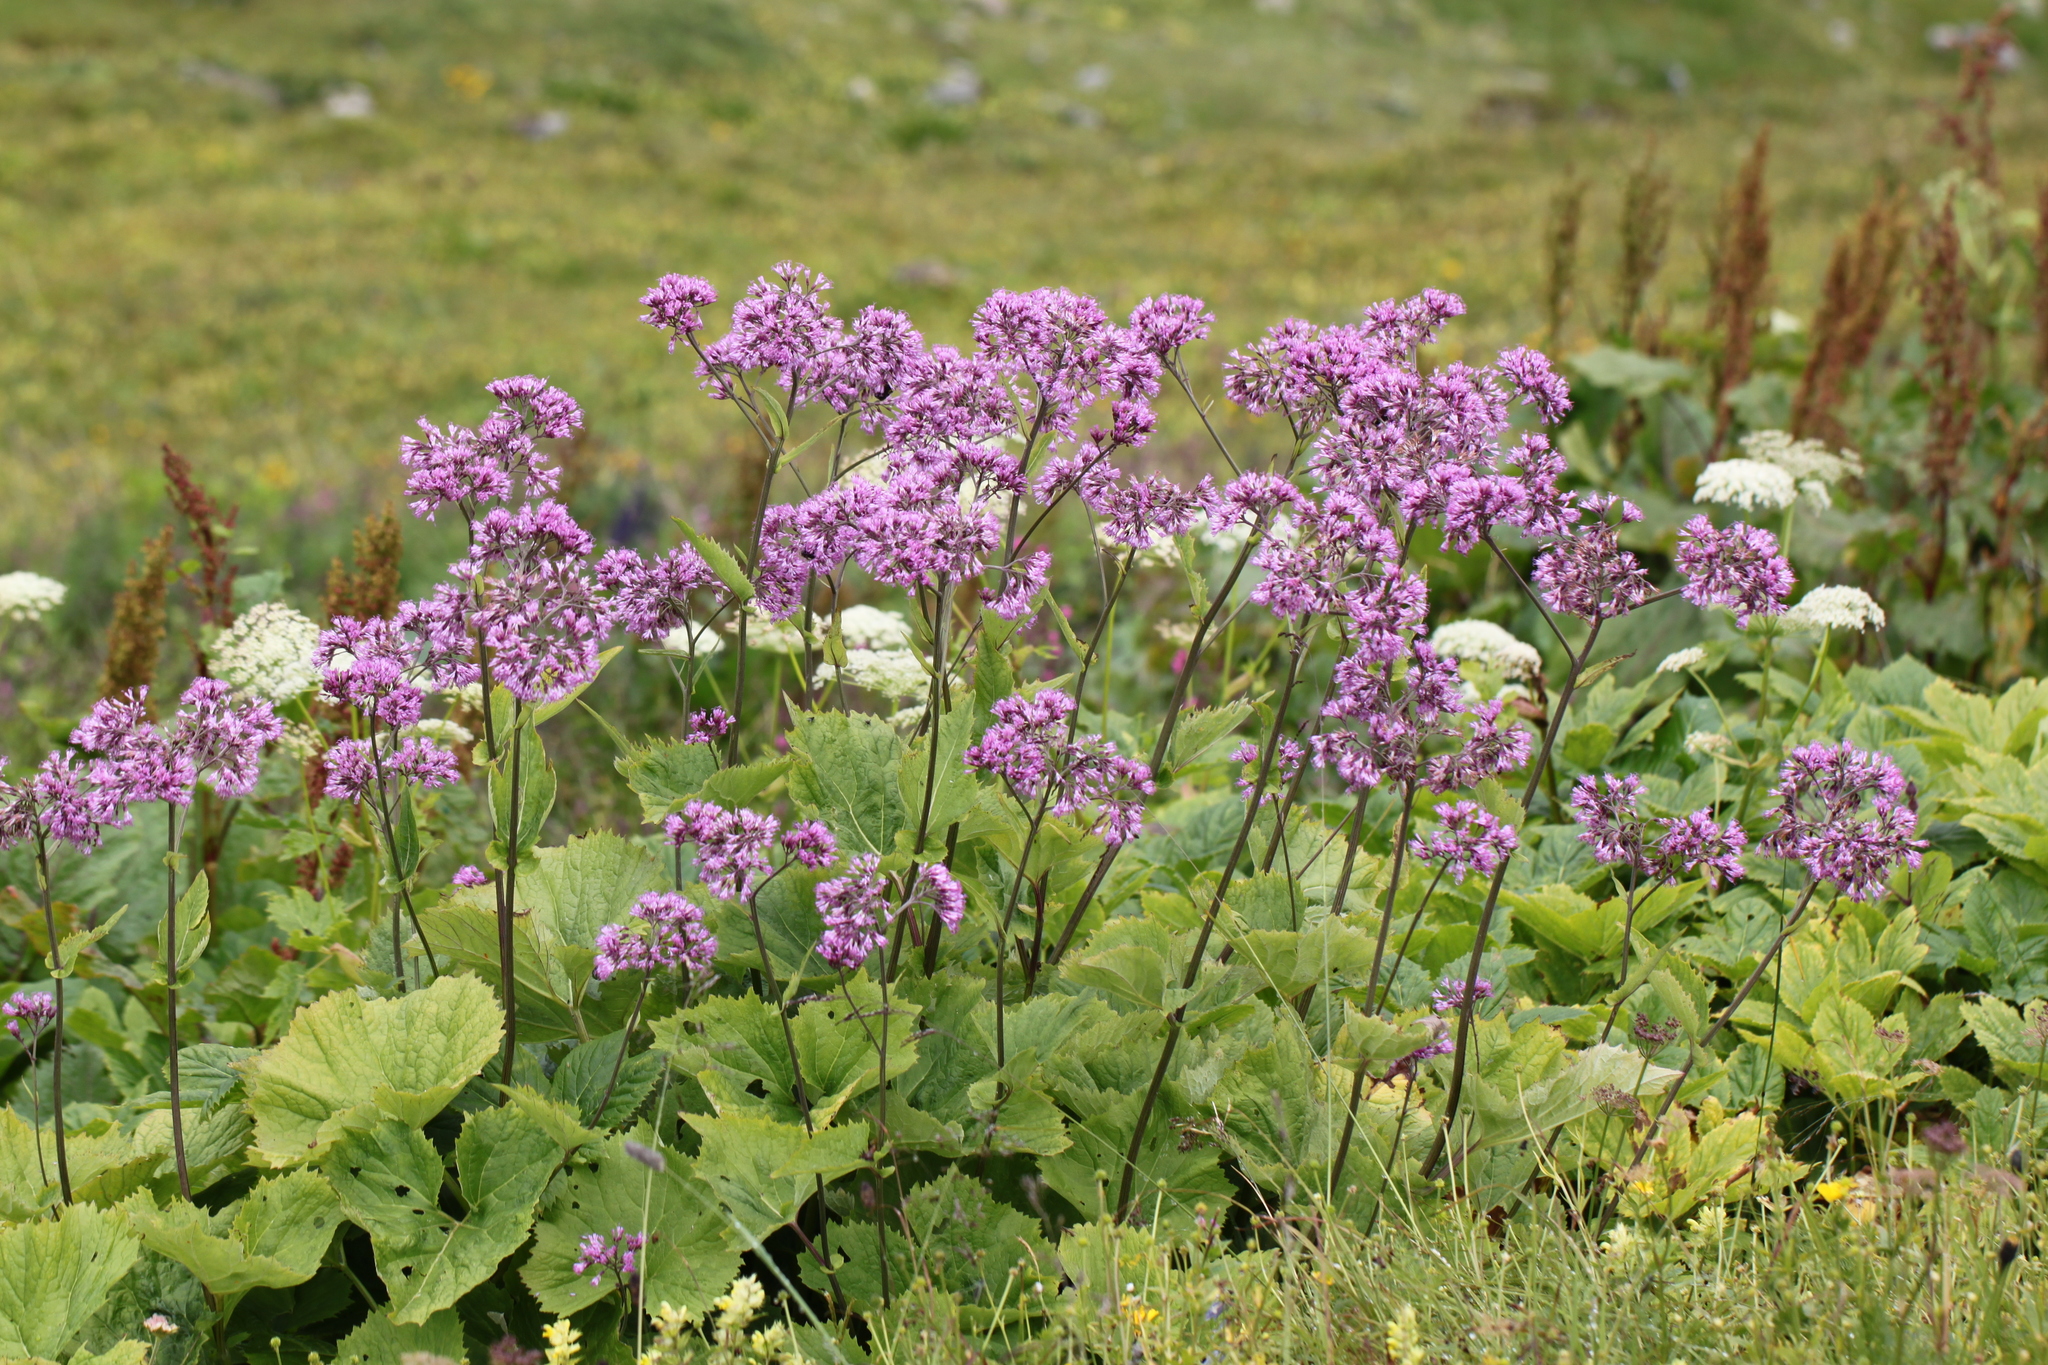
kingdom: Plantae
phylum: Tracheophyta
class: Magnoliopsida
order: Asterales
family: Asteraceae
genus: Adenostyles
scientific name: Adenostyles alliariae
